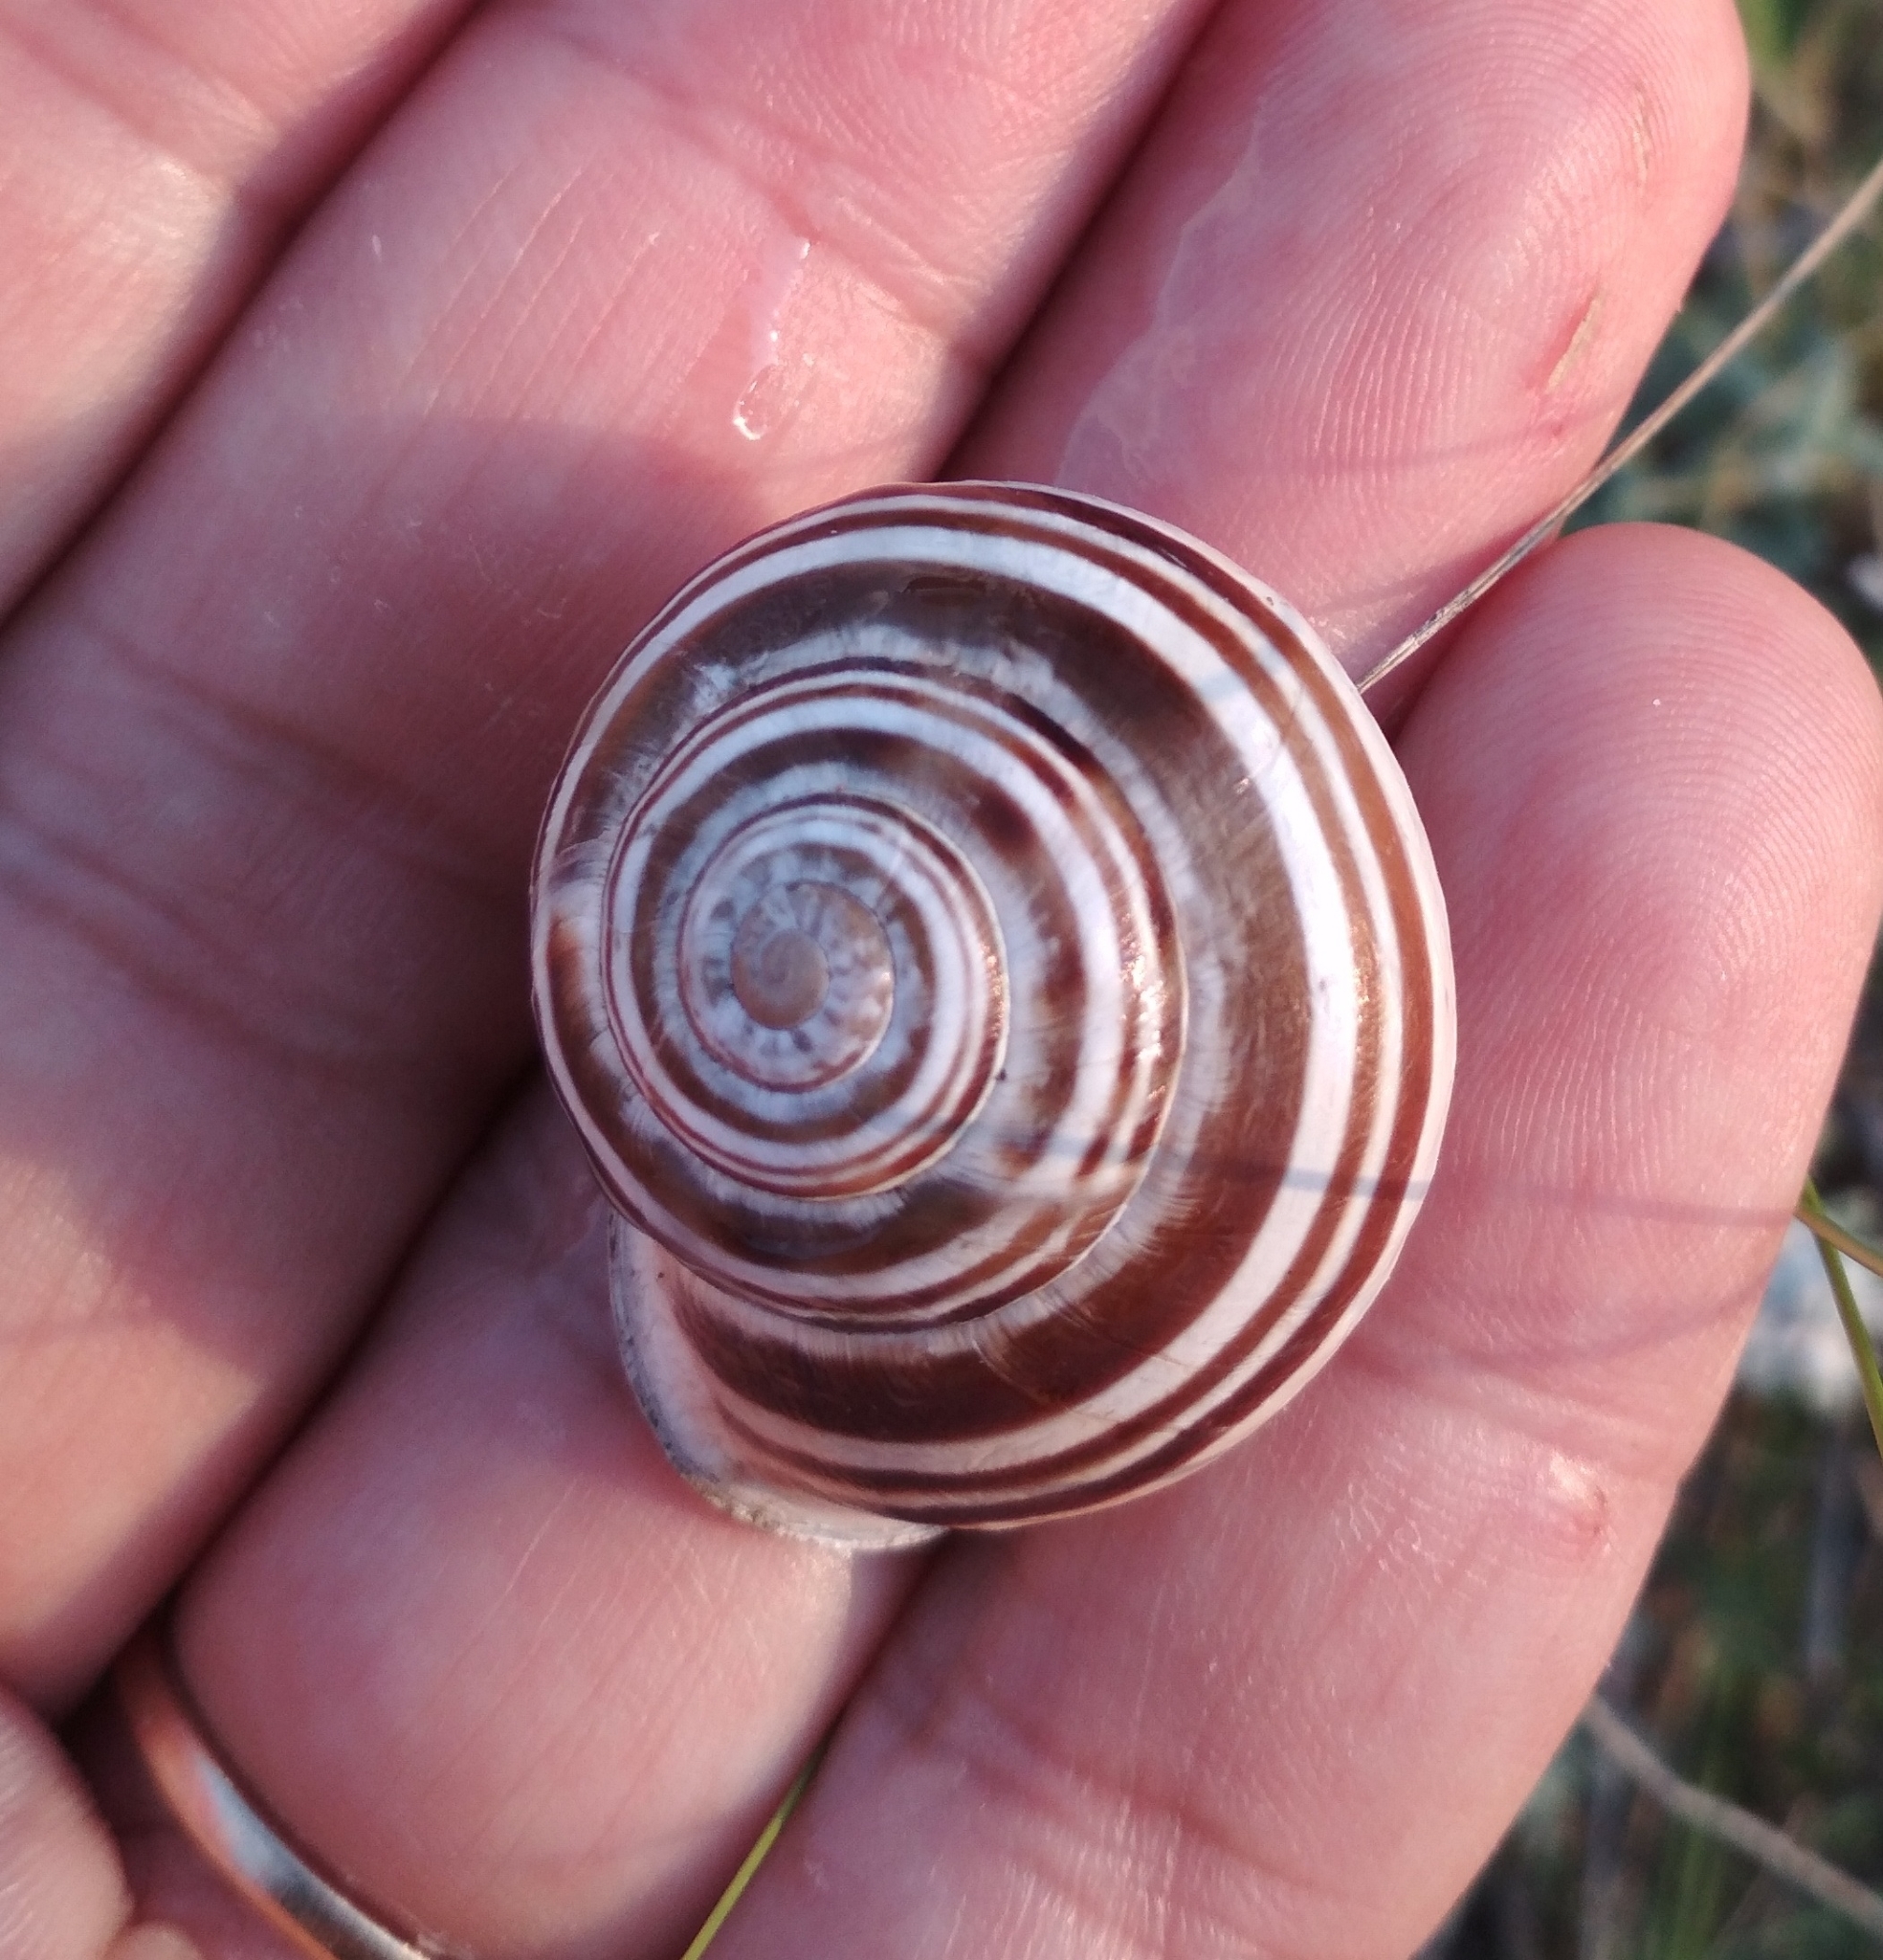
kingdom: Animalia
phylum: Mollusca
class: Gastropoda
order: Stylommatophora
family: Helicidae
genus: Eobania
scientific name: Eobania vermiculata
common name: Chocolateband snail
